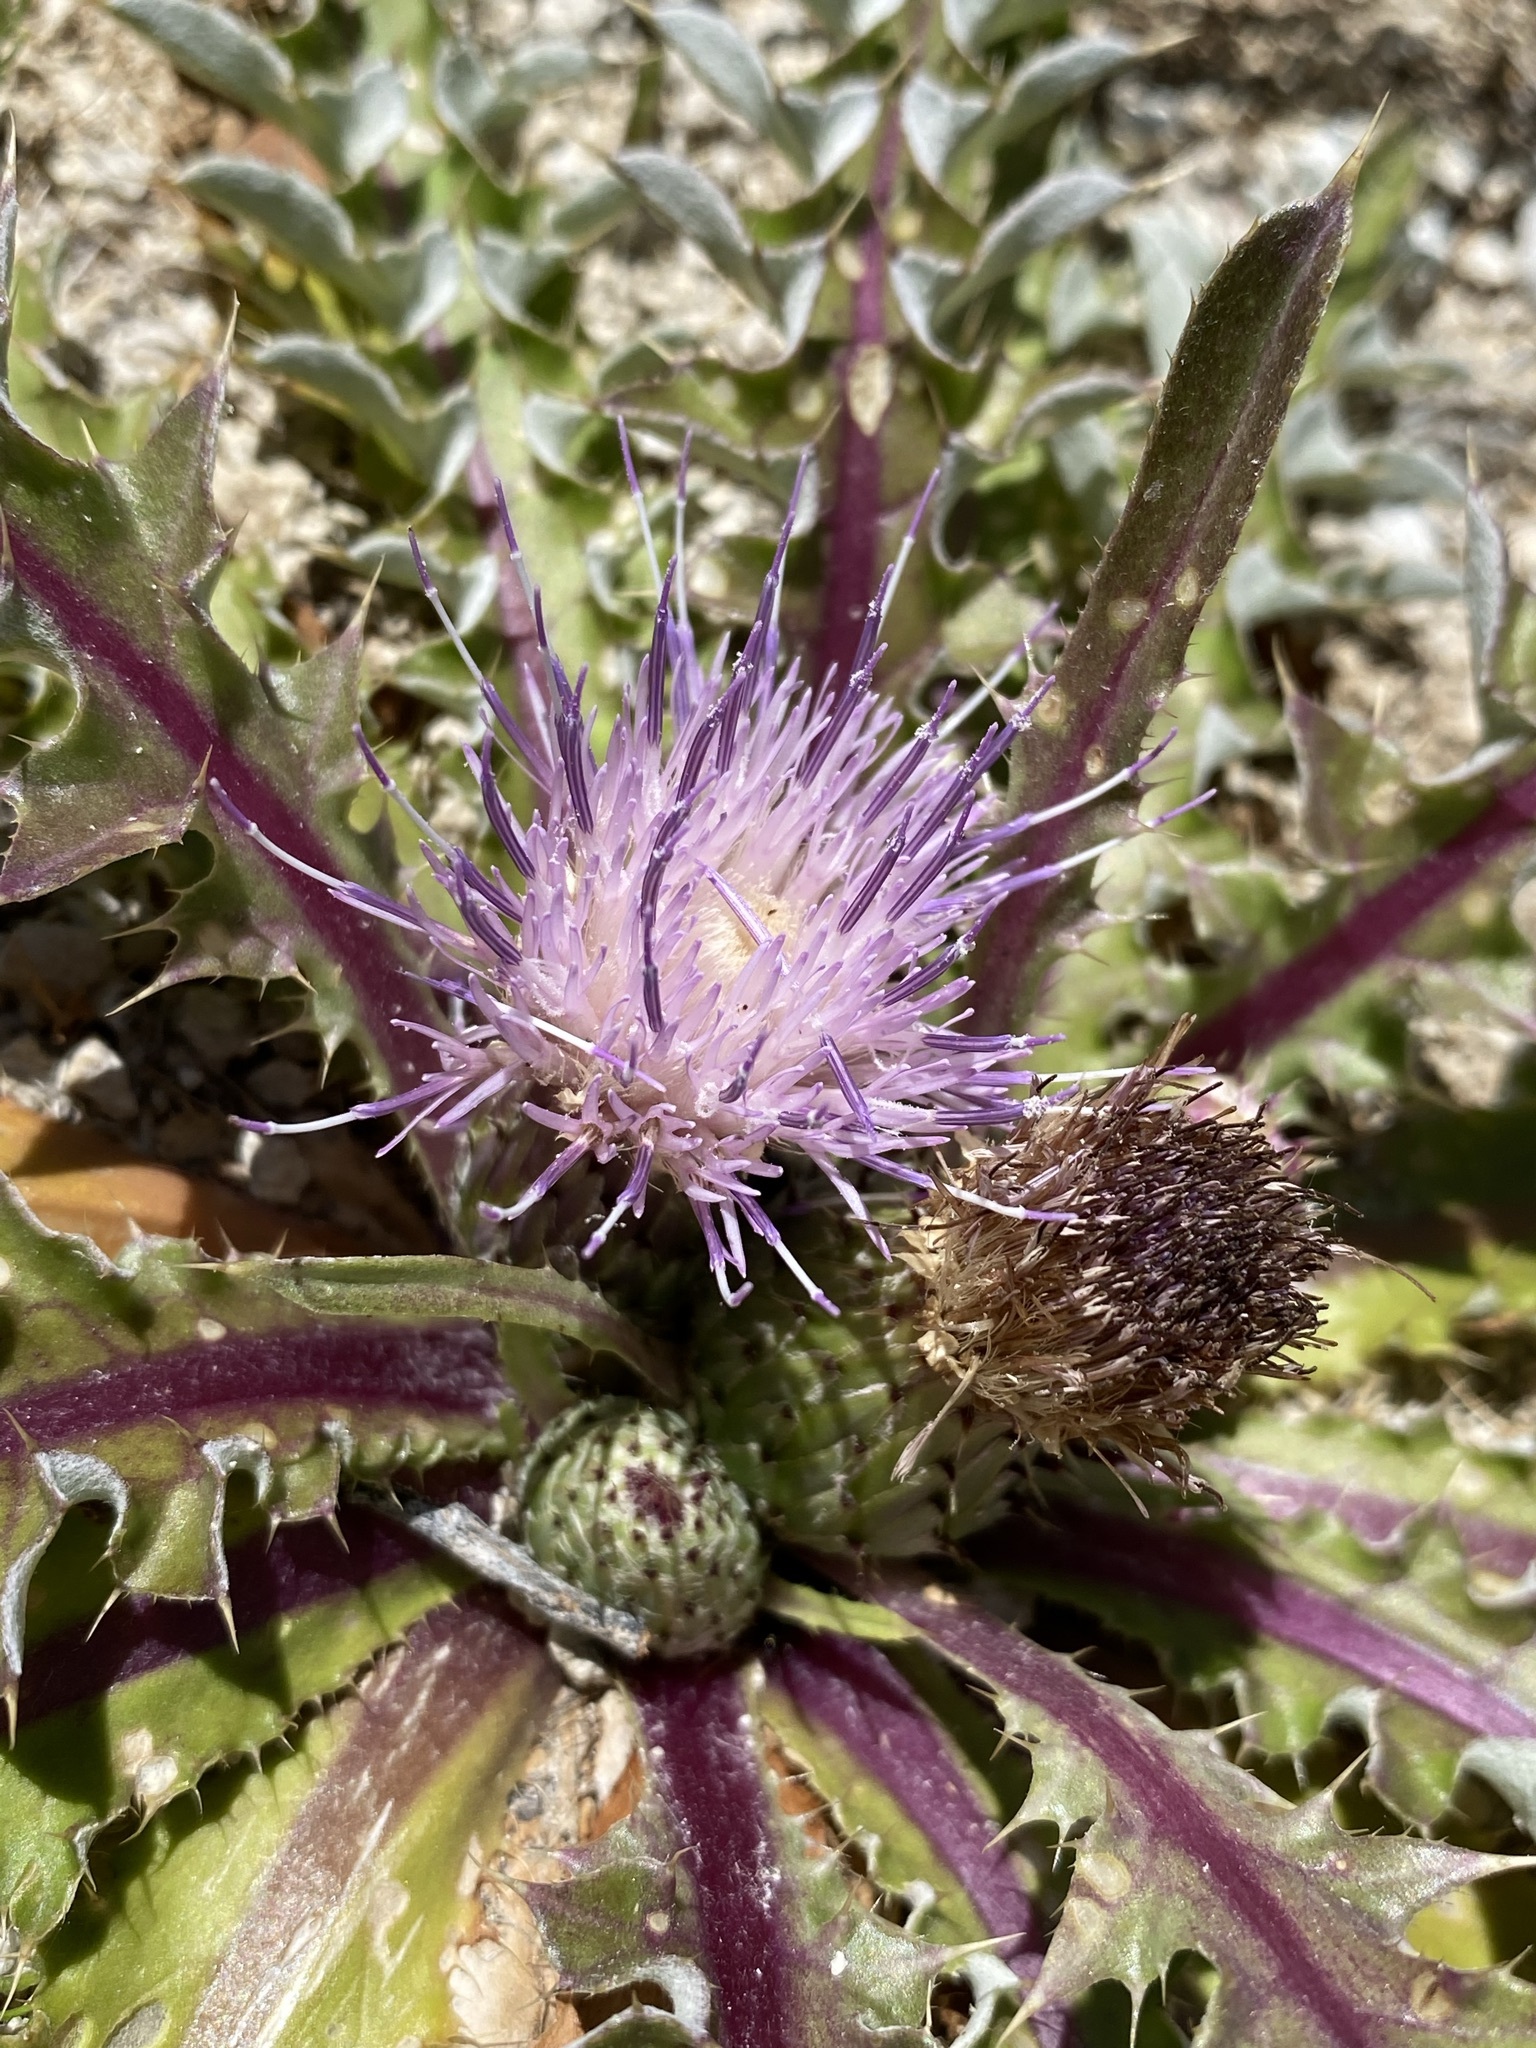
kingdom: Plantae
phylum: Tracheophyta
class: Magnoliopsida
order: Asterales
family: Asteraceae
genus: Cirsium
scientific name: Cirsium scariosum
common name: Meadow thistle
